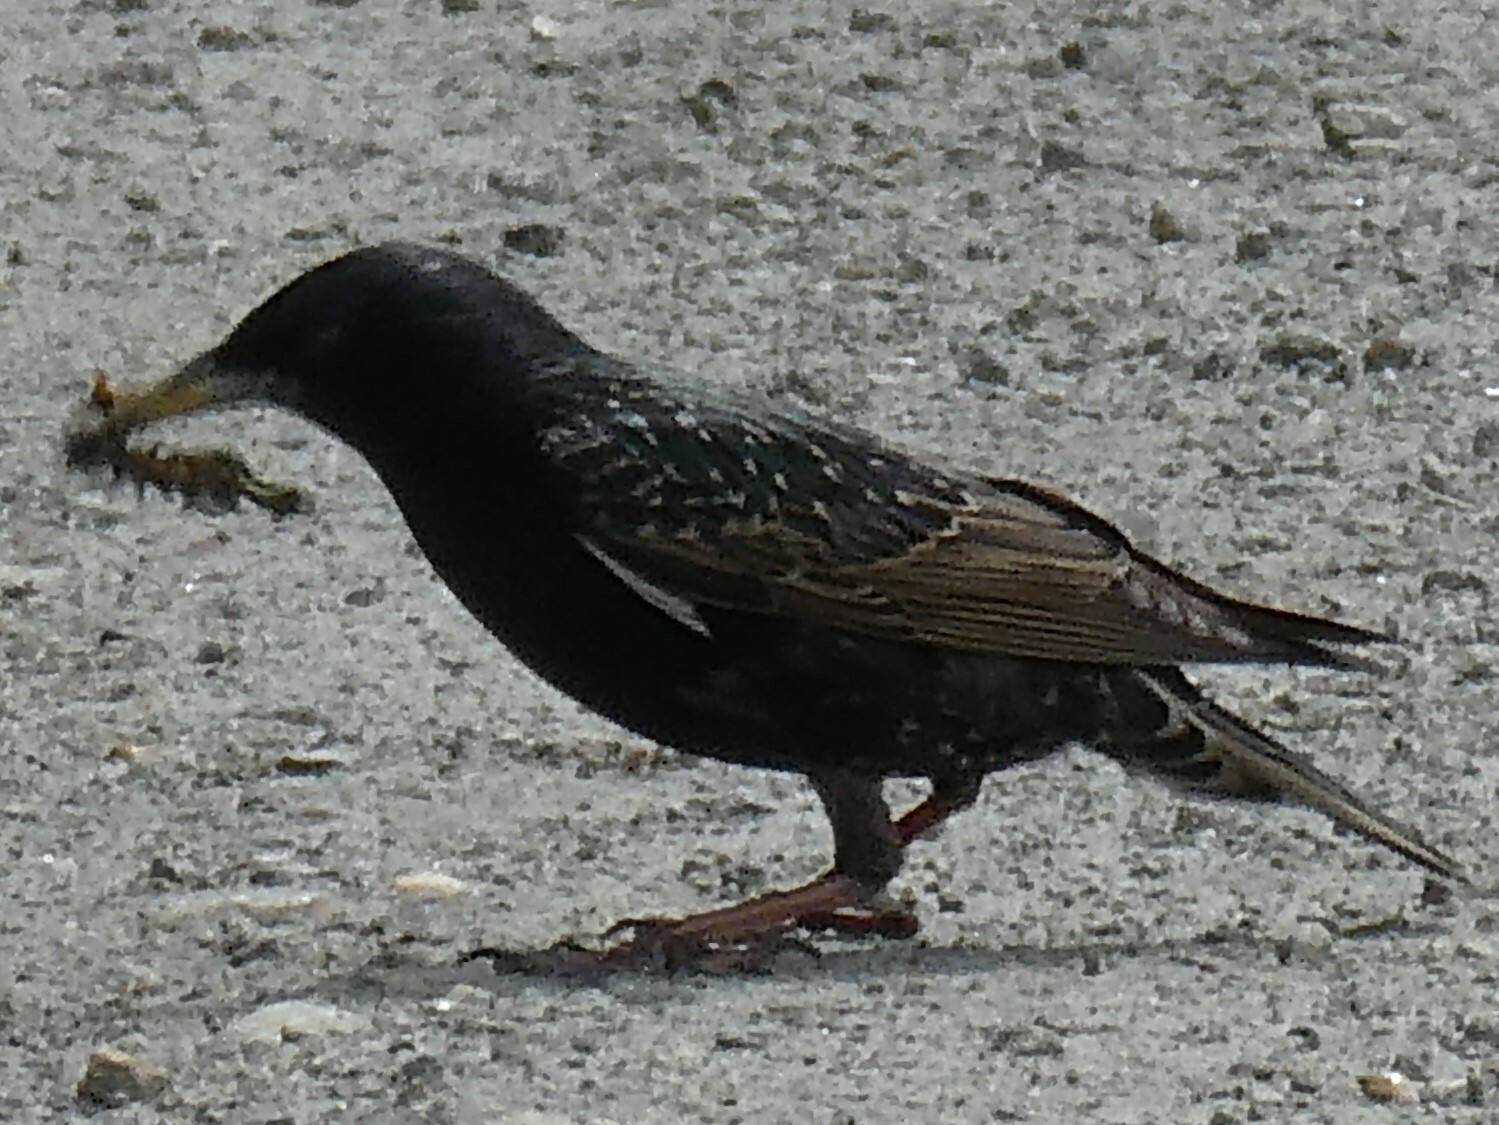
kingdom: Animalia
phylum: Chordata
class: Aves
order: Passeriformes
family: Sturnidae
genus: Sturnus
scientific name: Sturnus vulgaris
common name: Common starling
